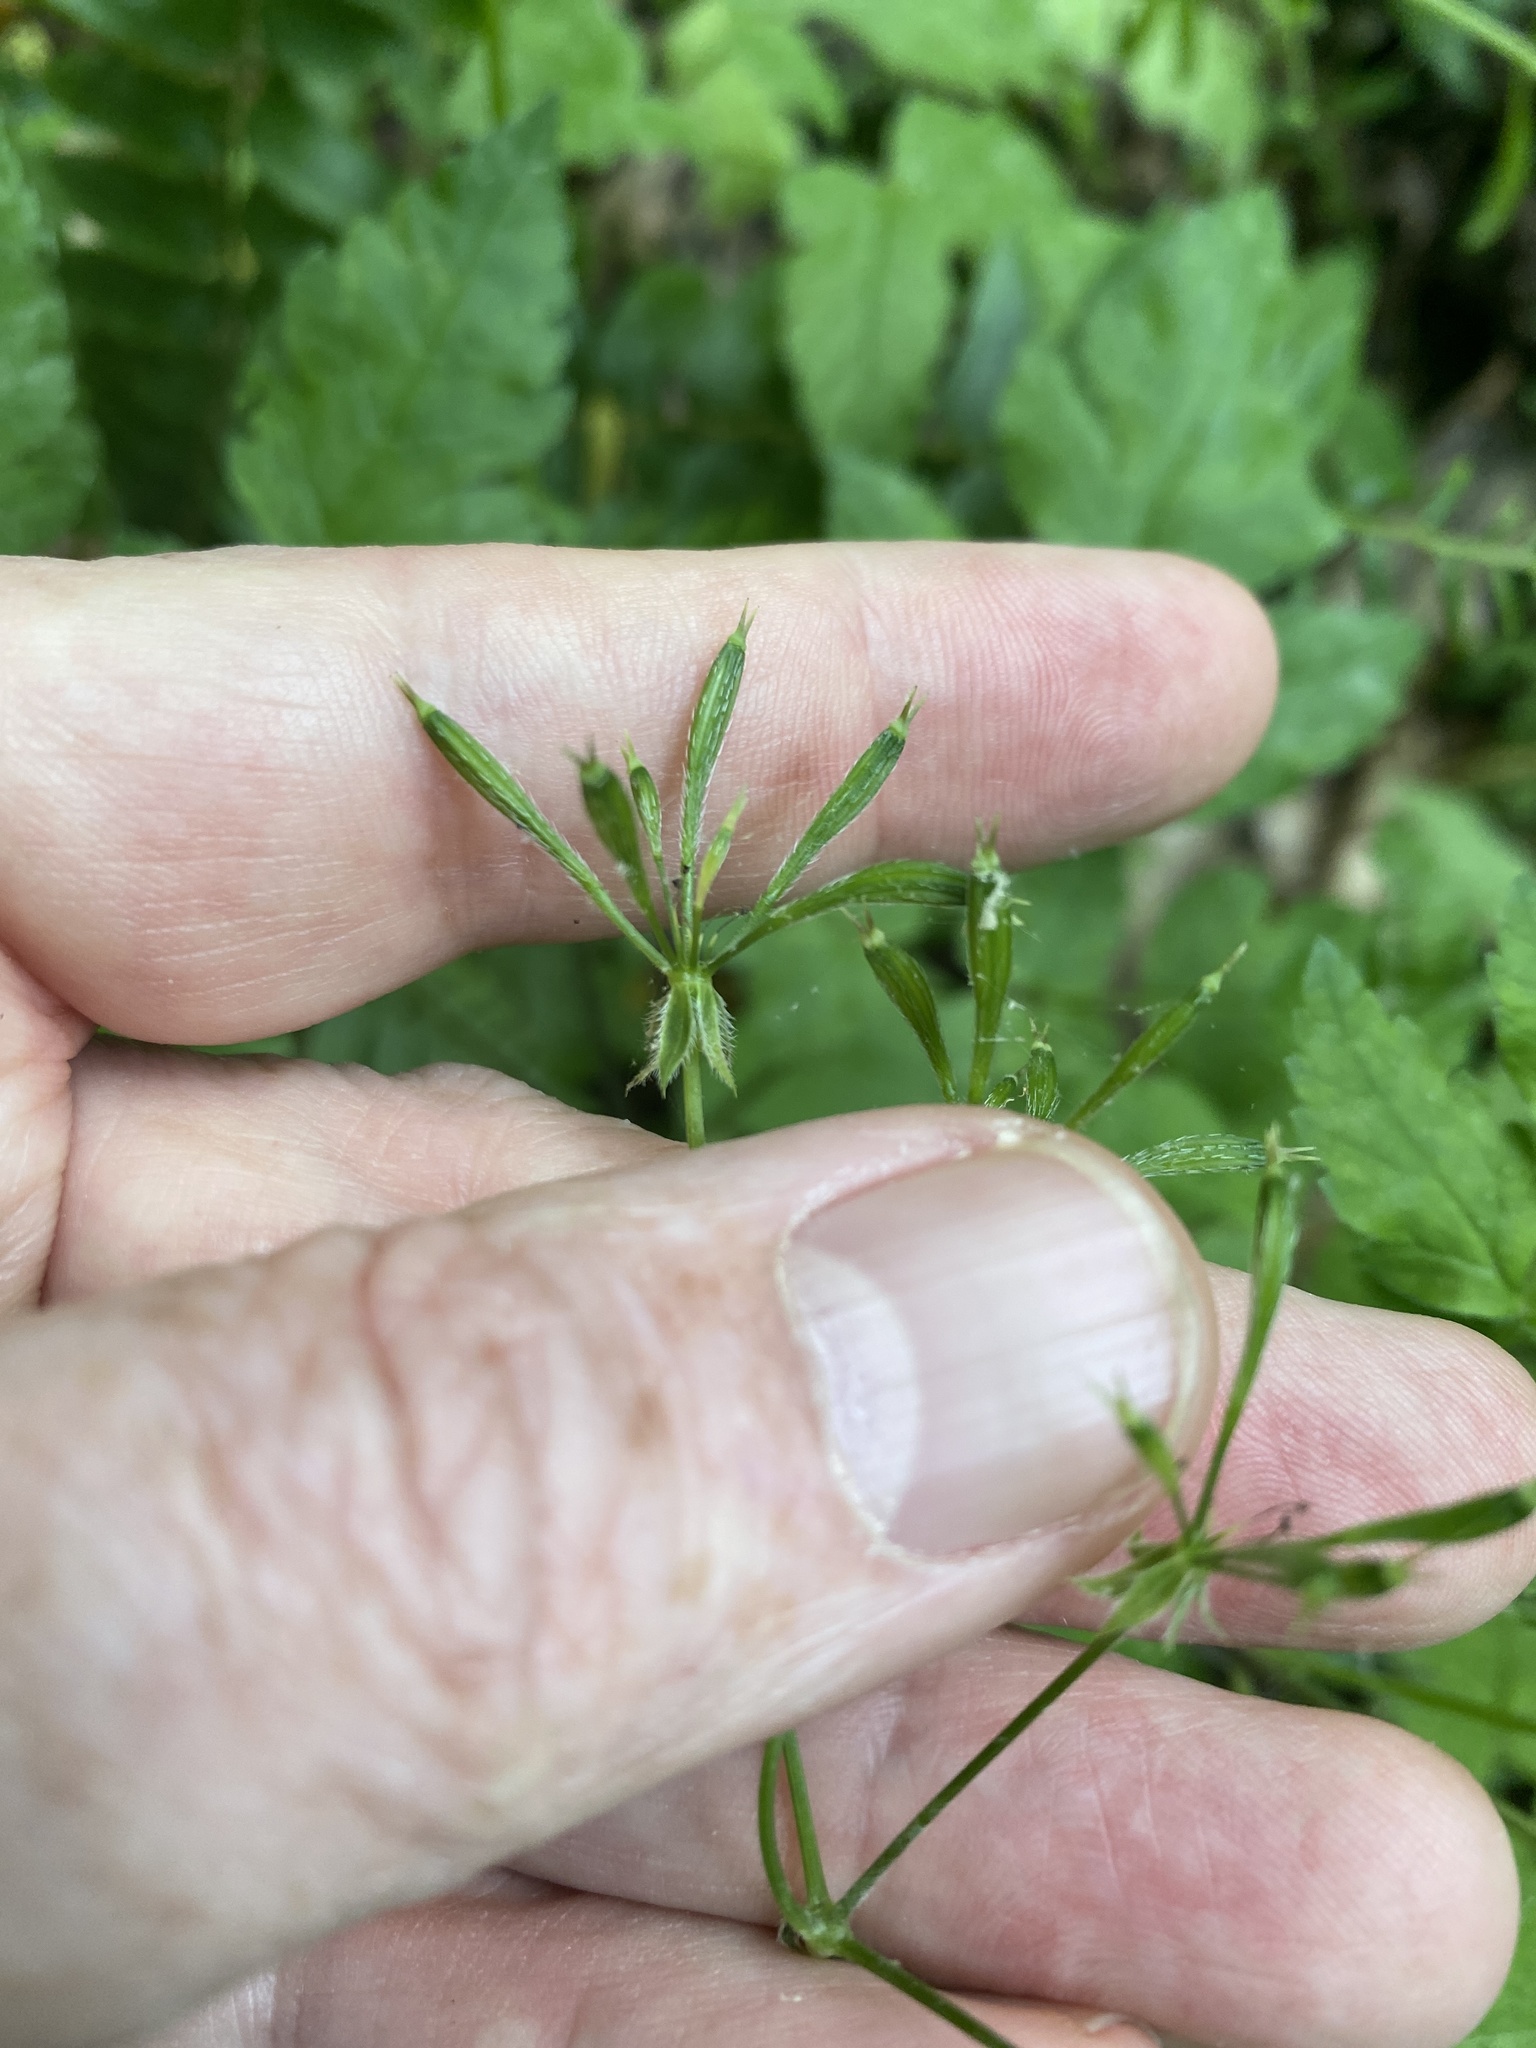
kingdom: Plantae
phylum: Tracheophyta
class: Magnoliopsida
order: Apiales
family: Apiaceae
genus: Osmorhiza
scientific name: Osmorhiza longistylis
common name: Smooth sweet cicely
